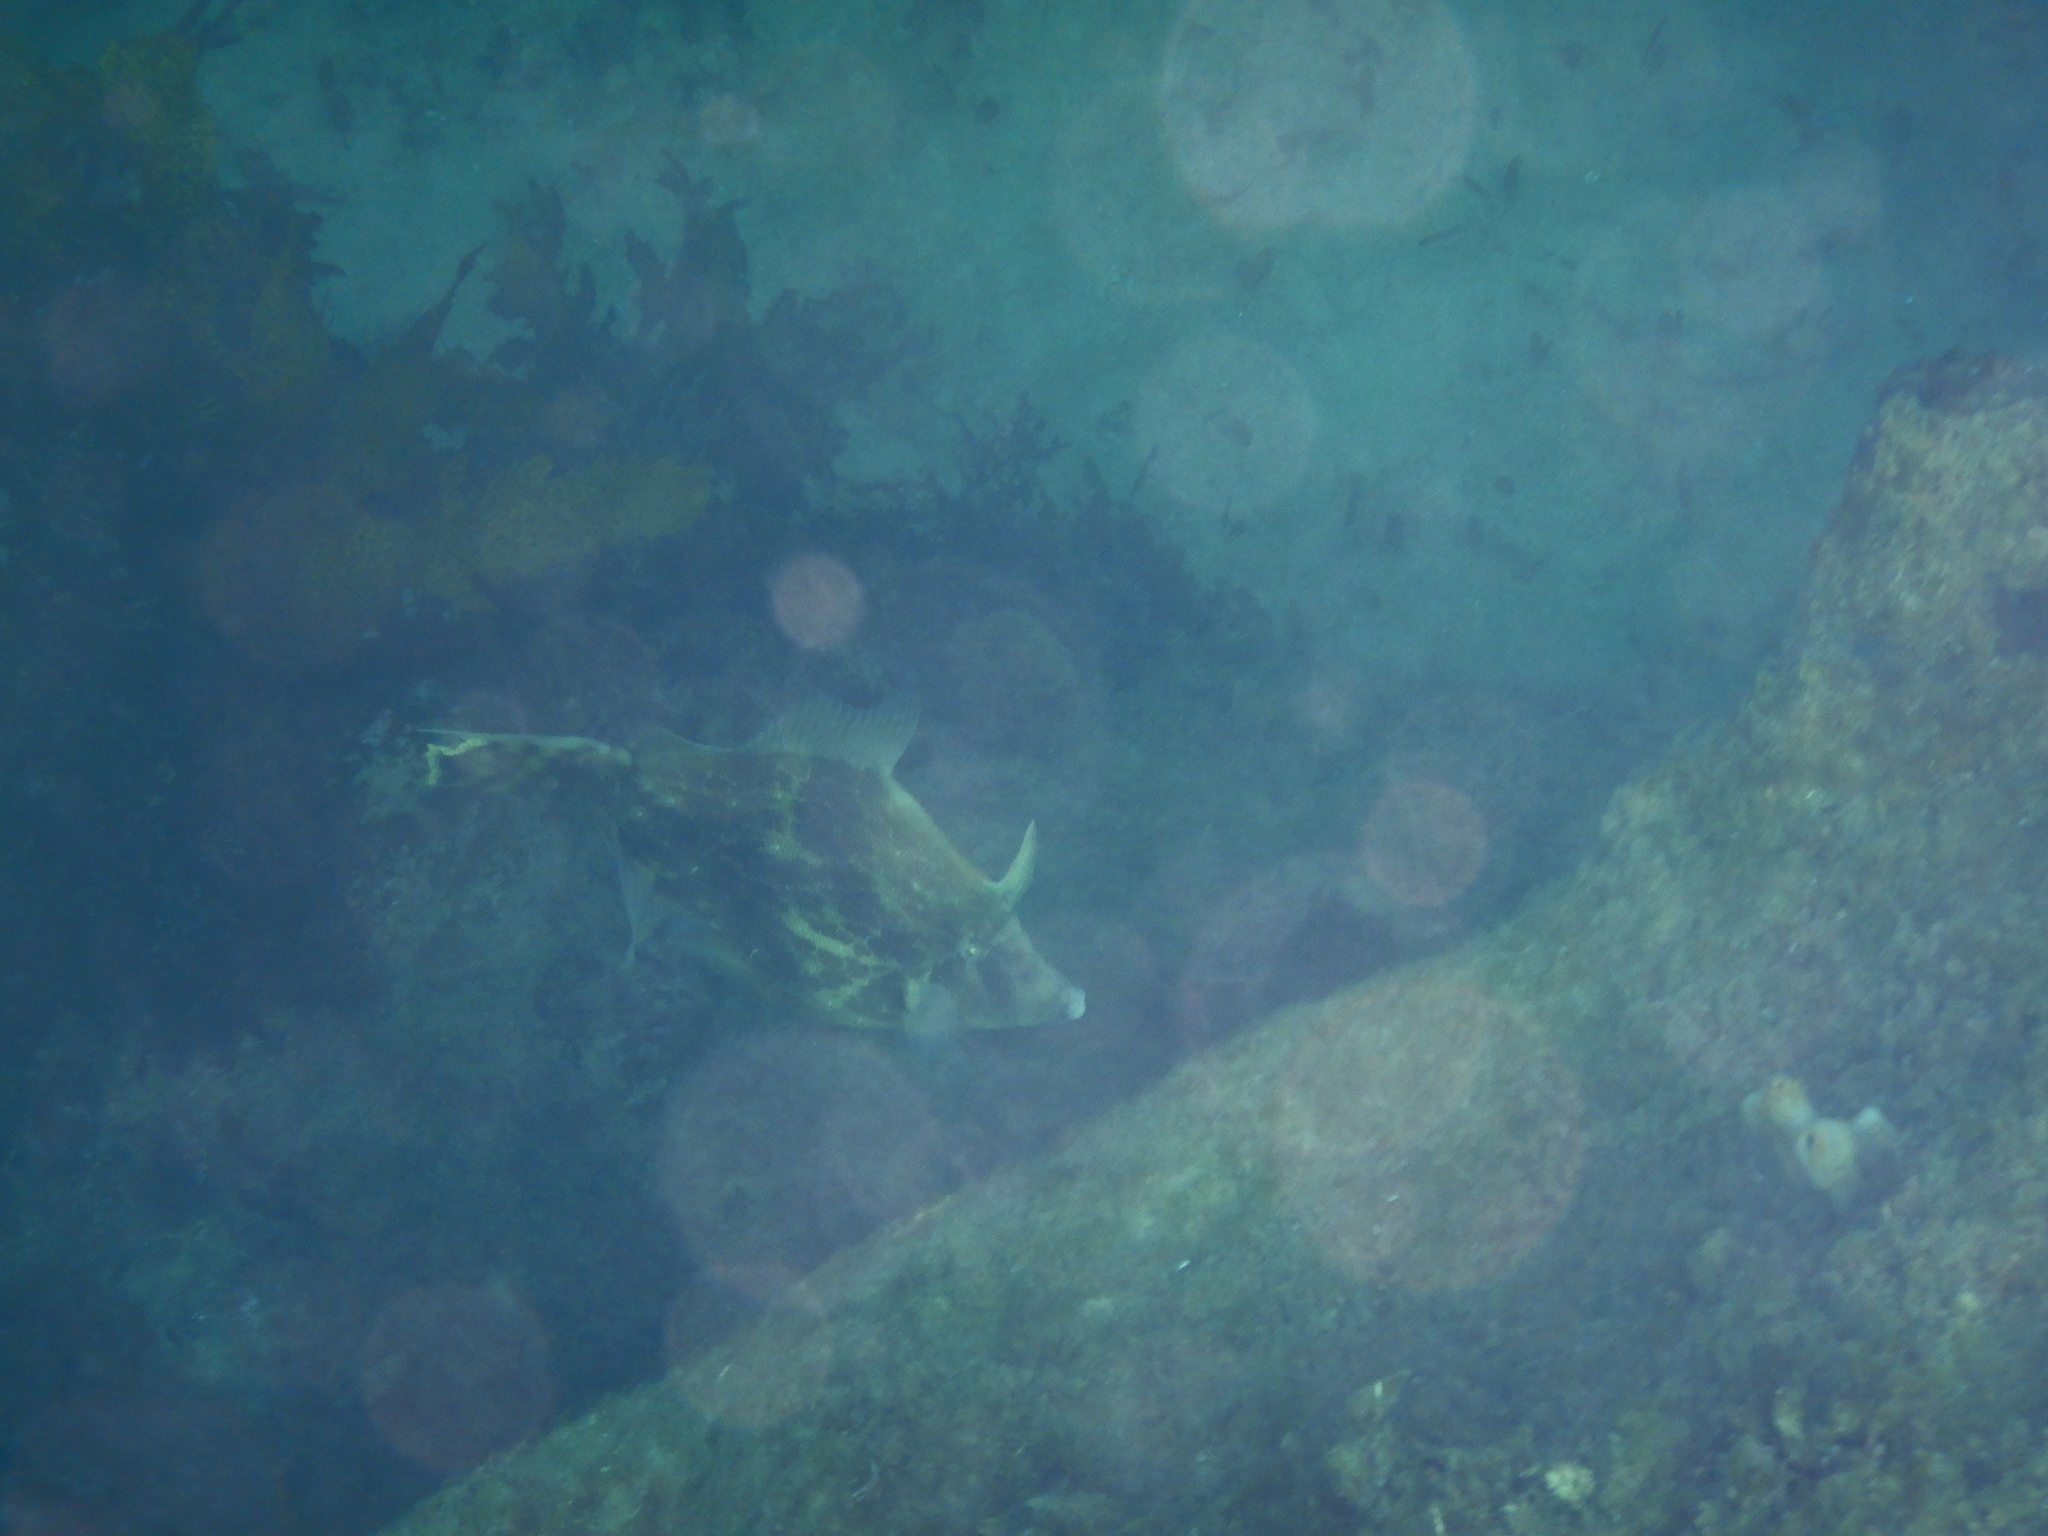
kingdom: Animalia
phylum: Chordata
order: Tetraodontiformes
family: Monacanthidae
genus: Monacanthus
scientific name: Monacanthus chinensis
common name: Centreboard leatherjacket
